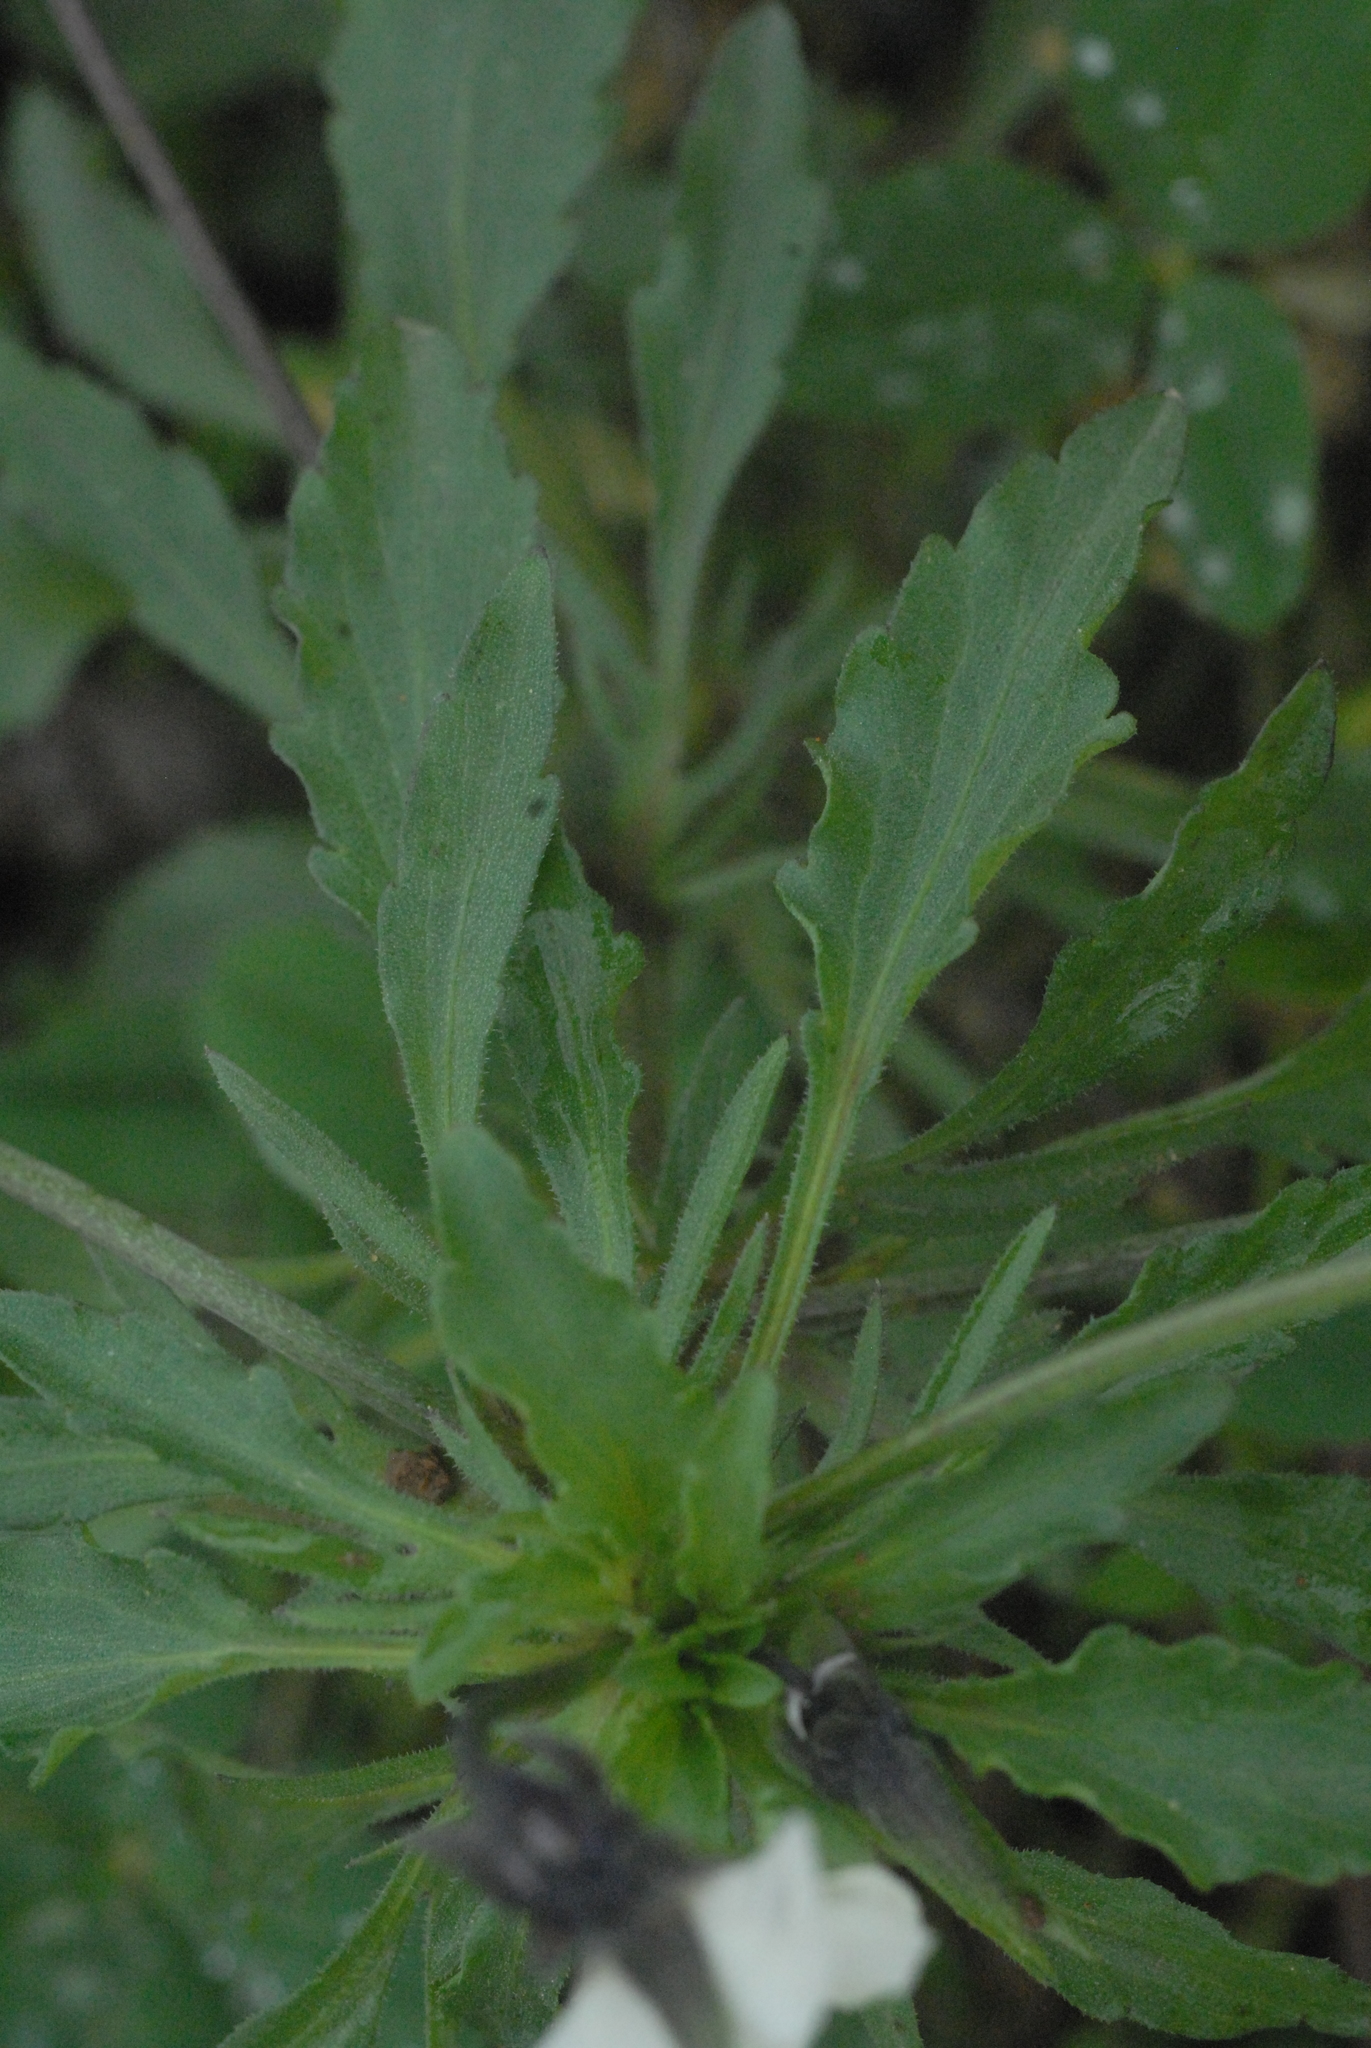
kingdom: Plantae
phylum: Tracheophyta
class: Magnoliopsida
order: Malpighiales
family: Violaceae
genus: Viola
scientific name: Viola arvensis
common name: Field pansy
